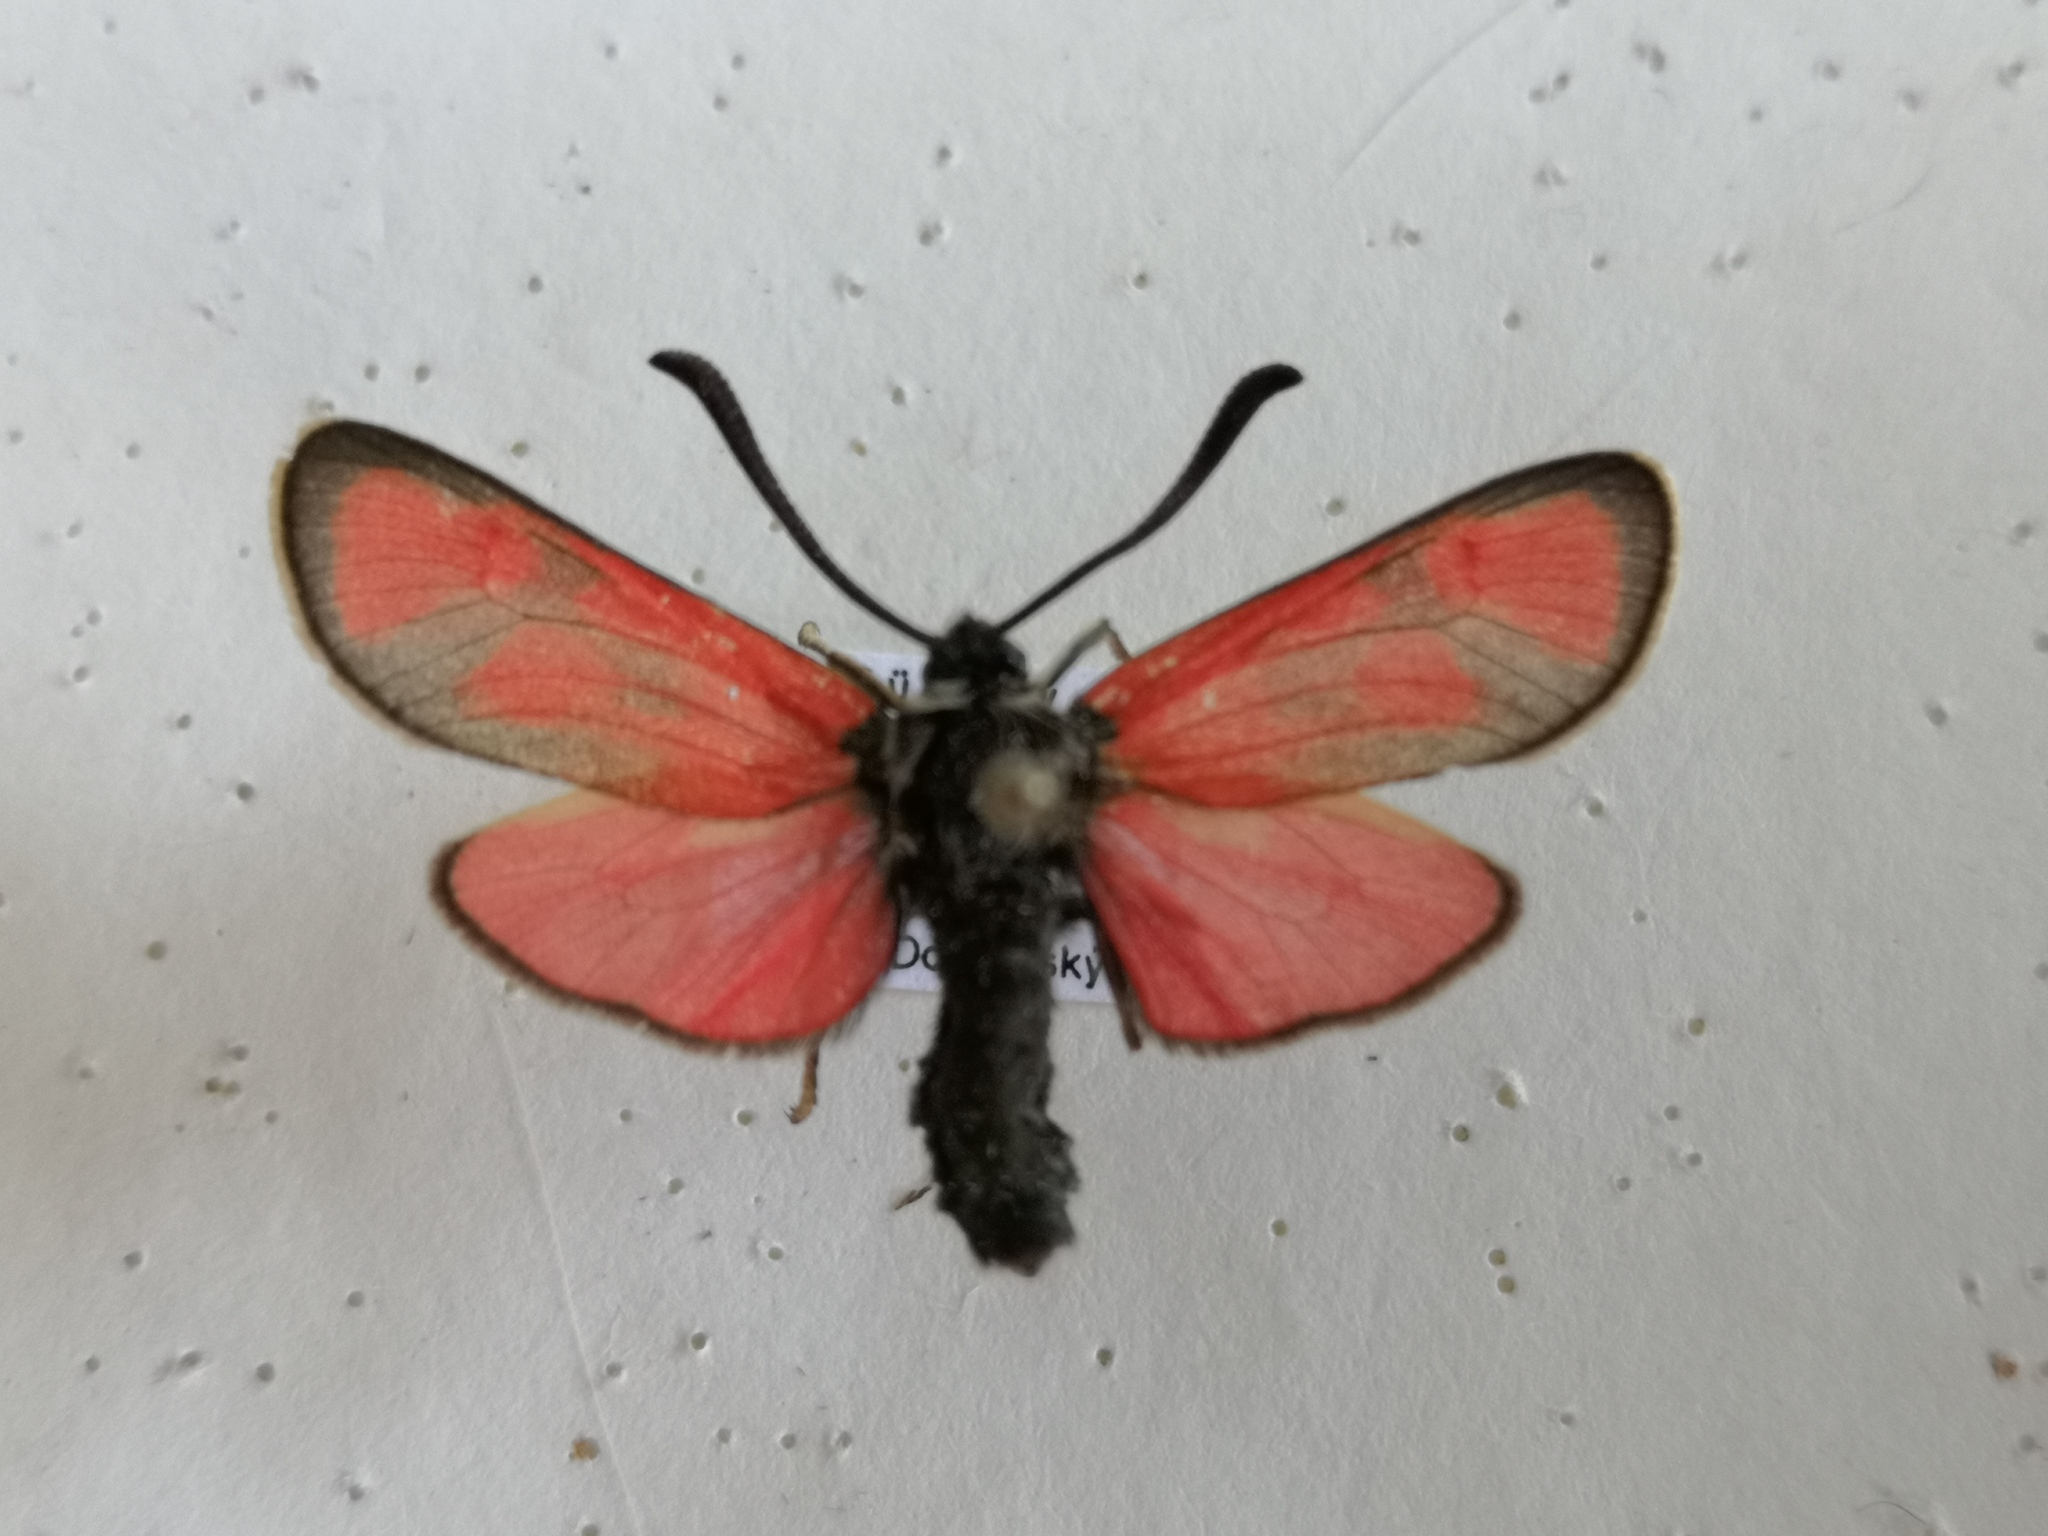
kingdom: Animalia
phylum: Arthropoda
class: Insecta
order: Lepidoptera
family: Zygaenidae
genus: Zygaena
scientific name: Zygaena loti
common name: Slender scotch burnet
